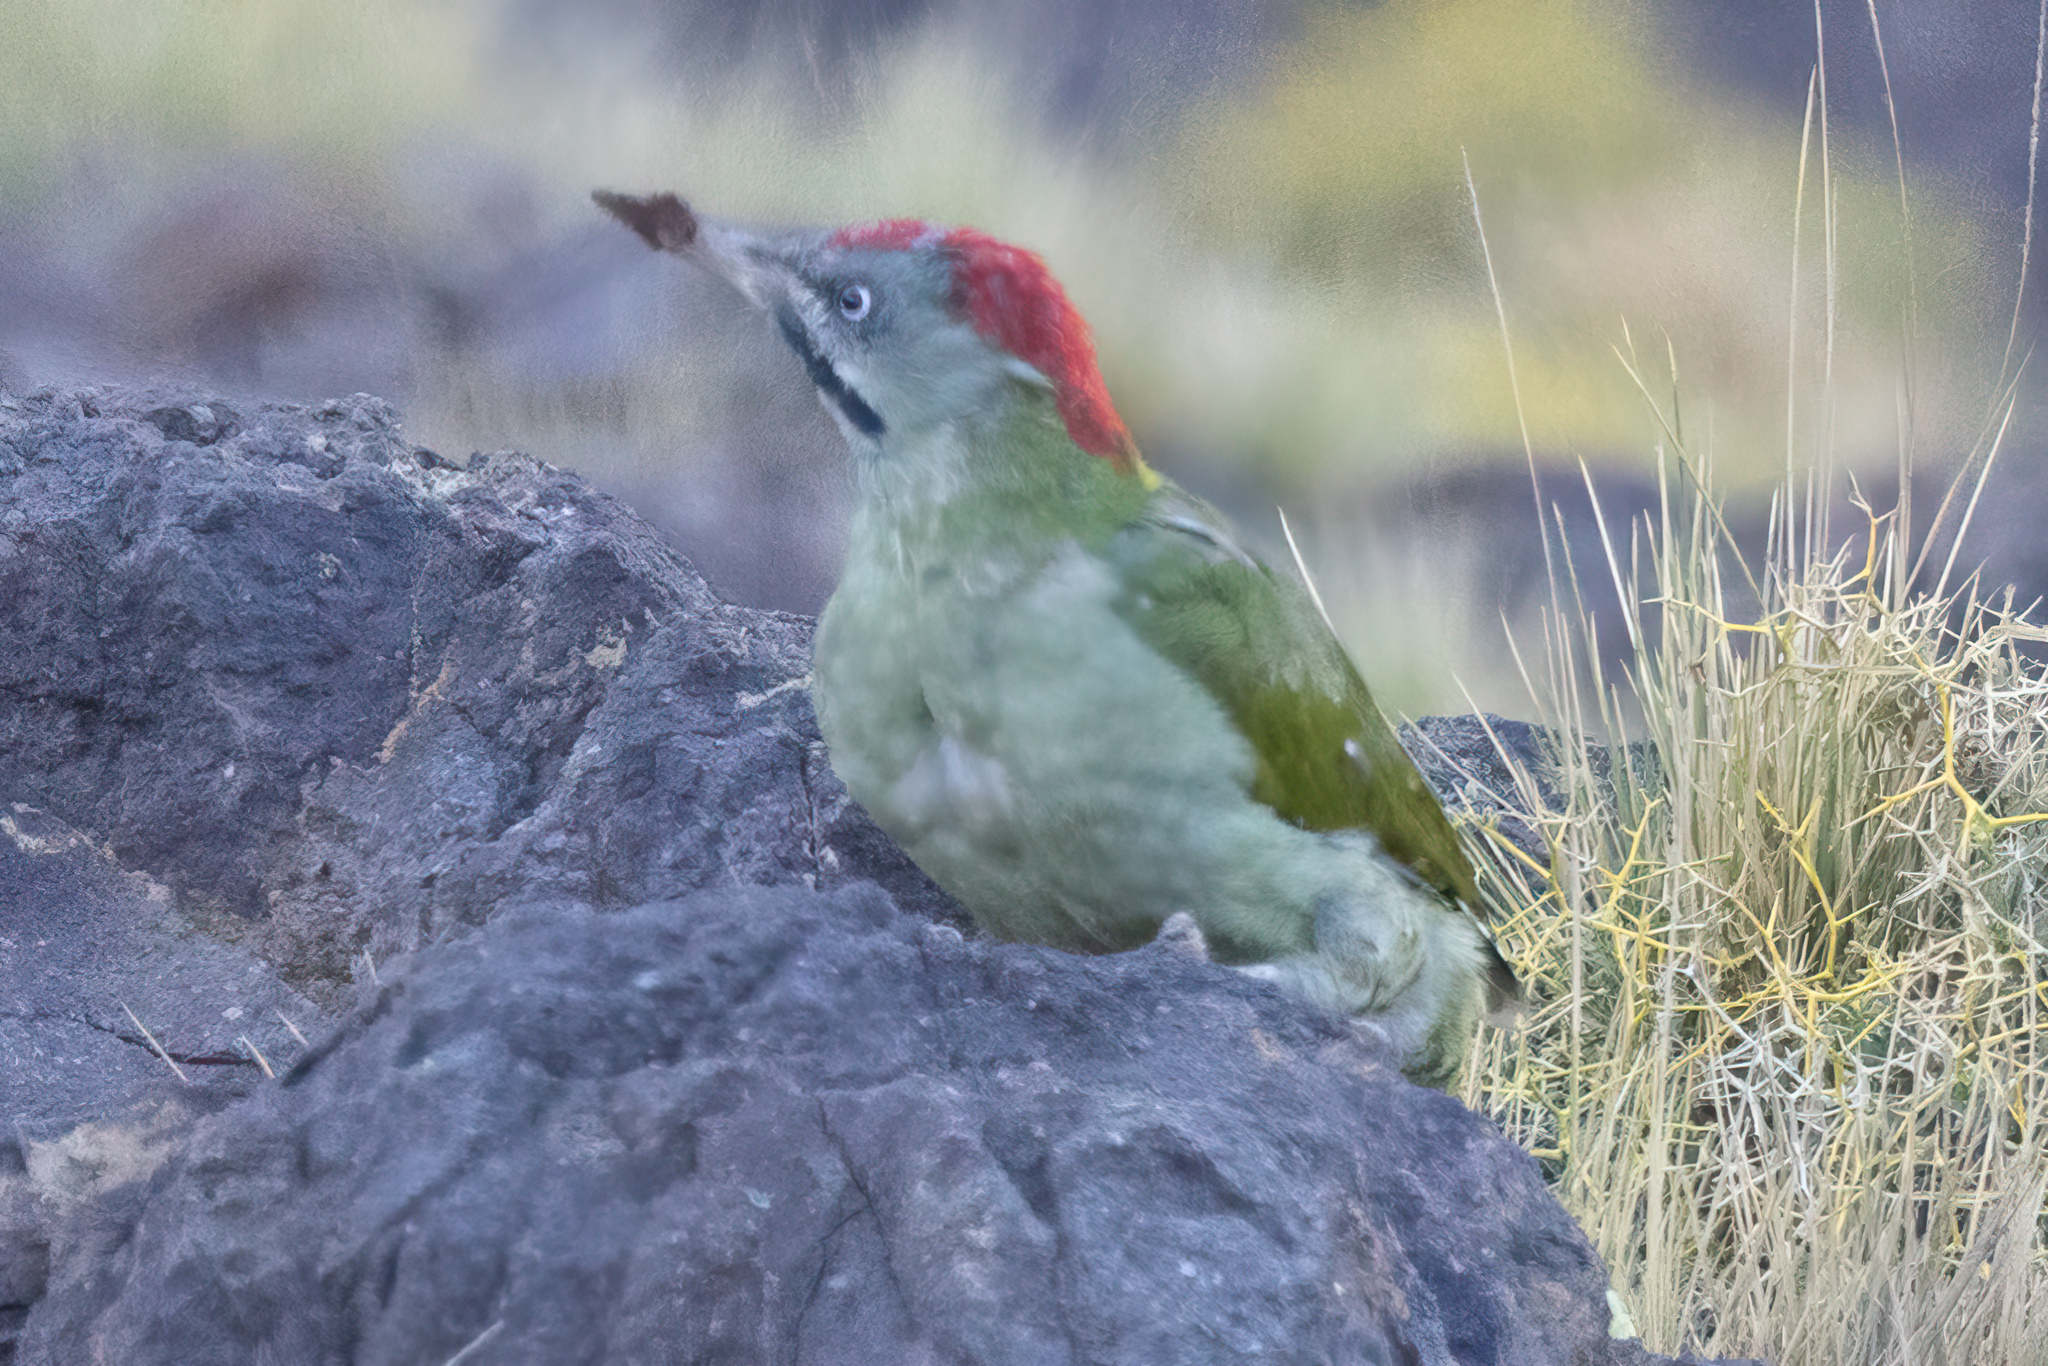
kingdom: Animalia
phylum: Chordata
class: Aves
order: Piciformes
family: Picidae
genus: Picus
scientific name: Picus vaillantii
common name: Levaillant's woodpecker
